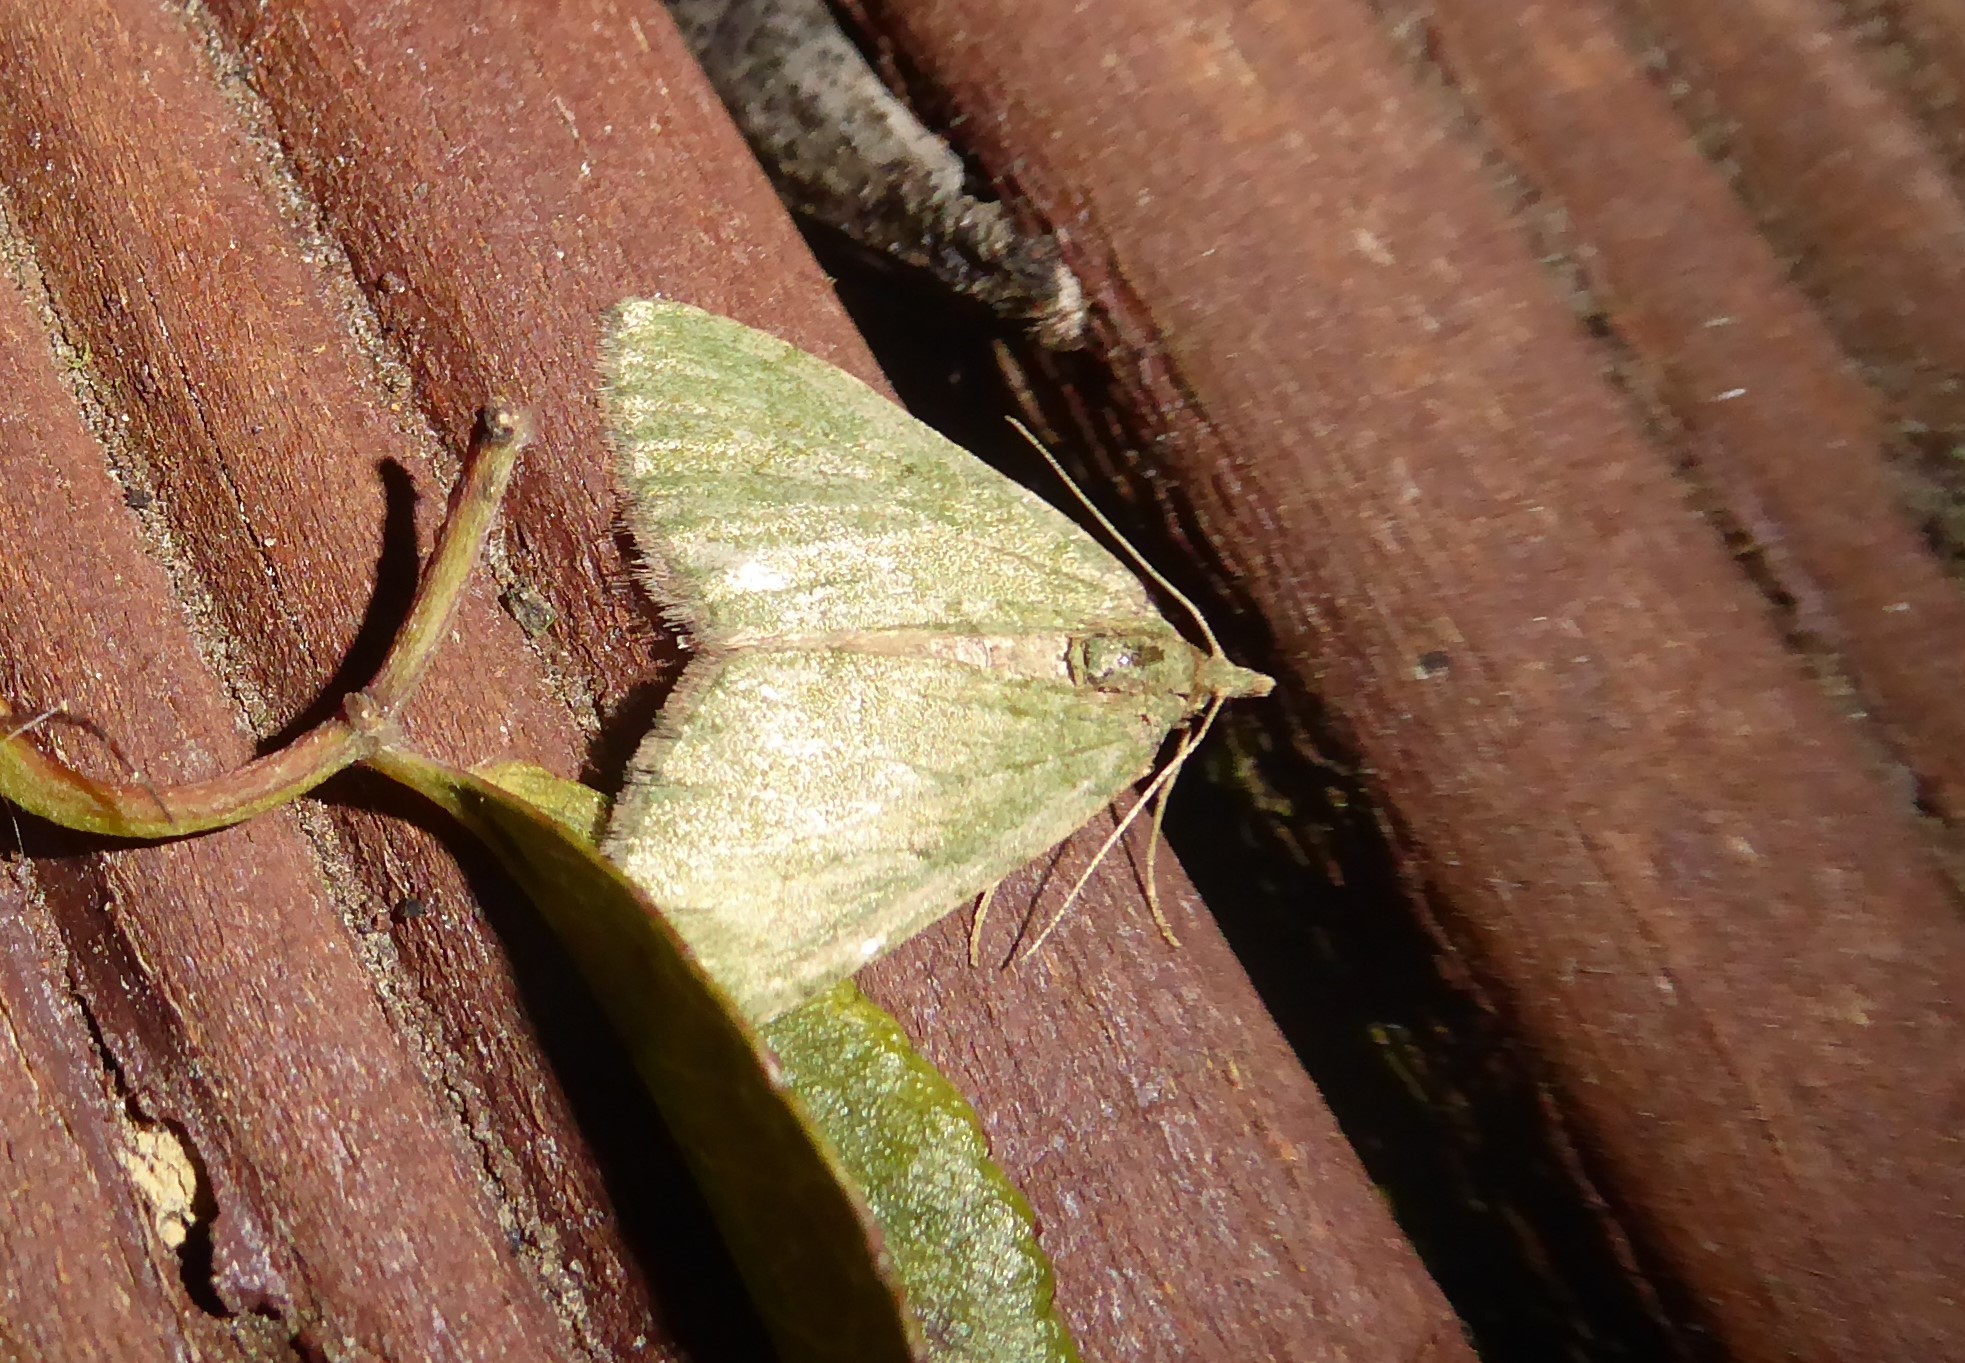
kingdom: Animalia
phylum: Arthropoda
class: Insecta
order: Lepidoptera
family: Geometridae
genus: Epyaxa
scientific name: Epyaxa rosearia
